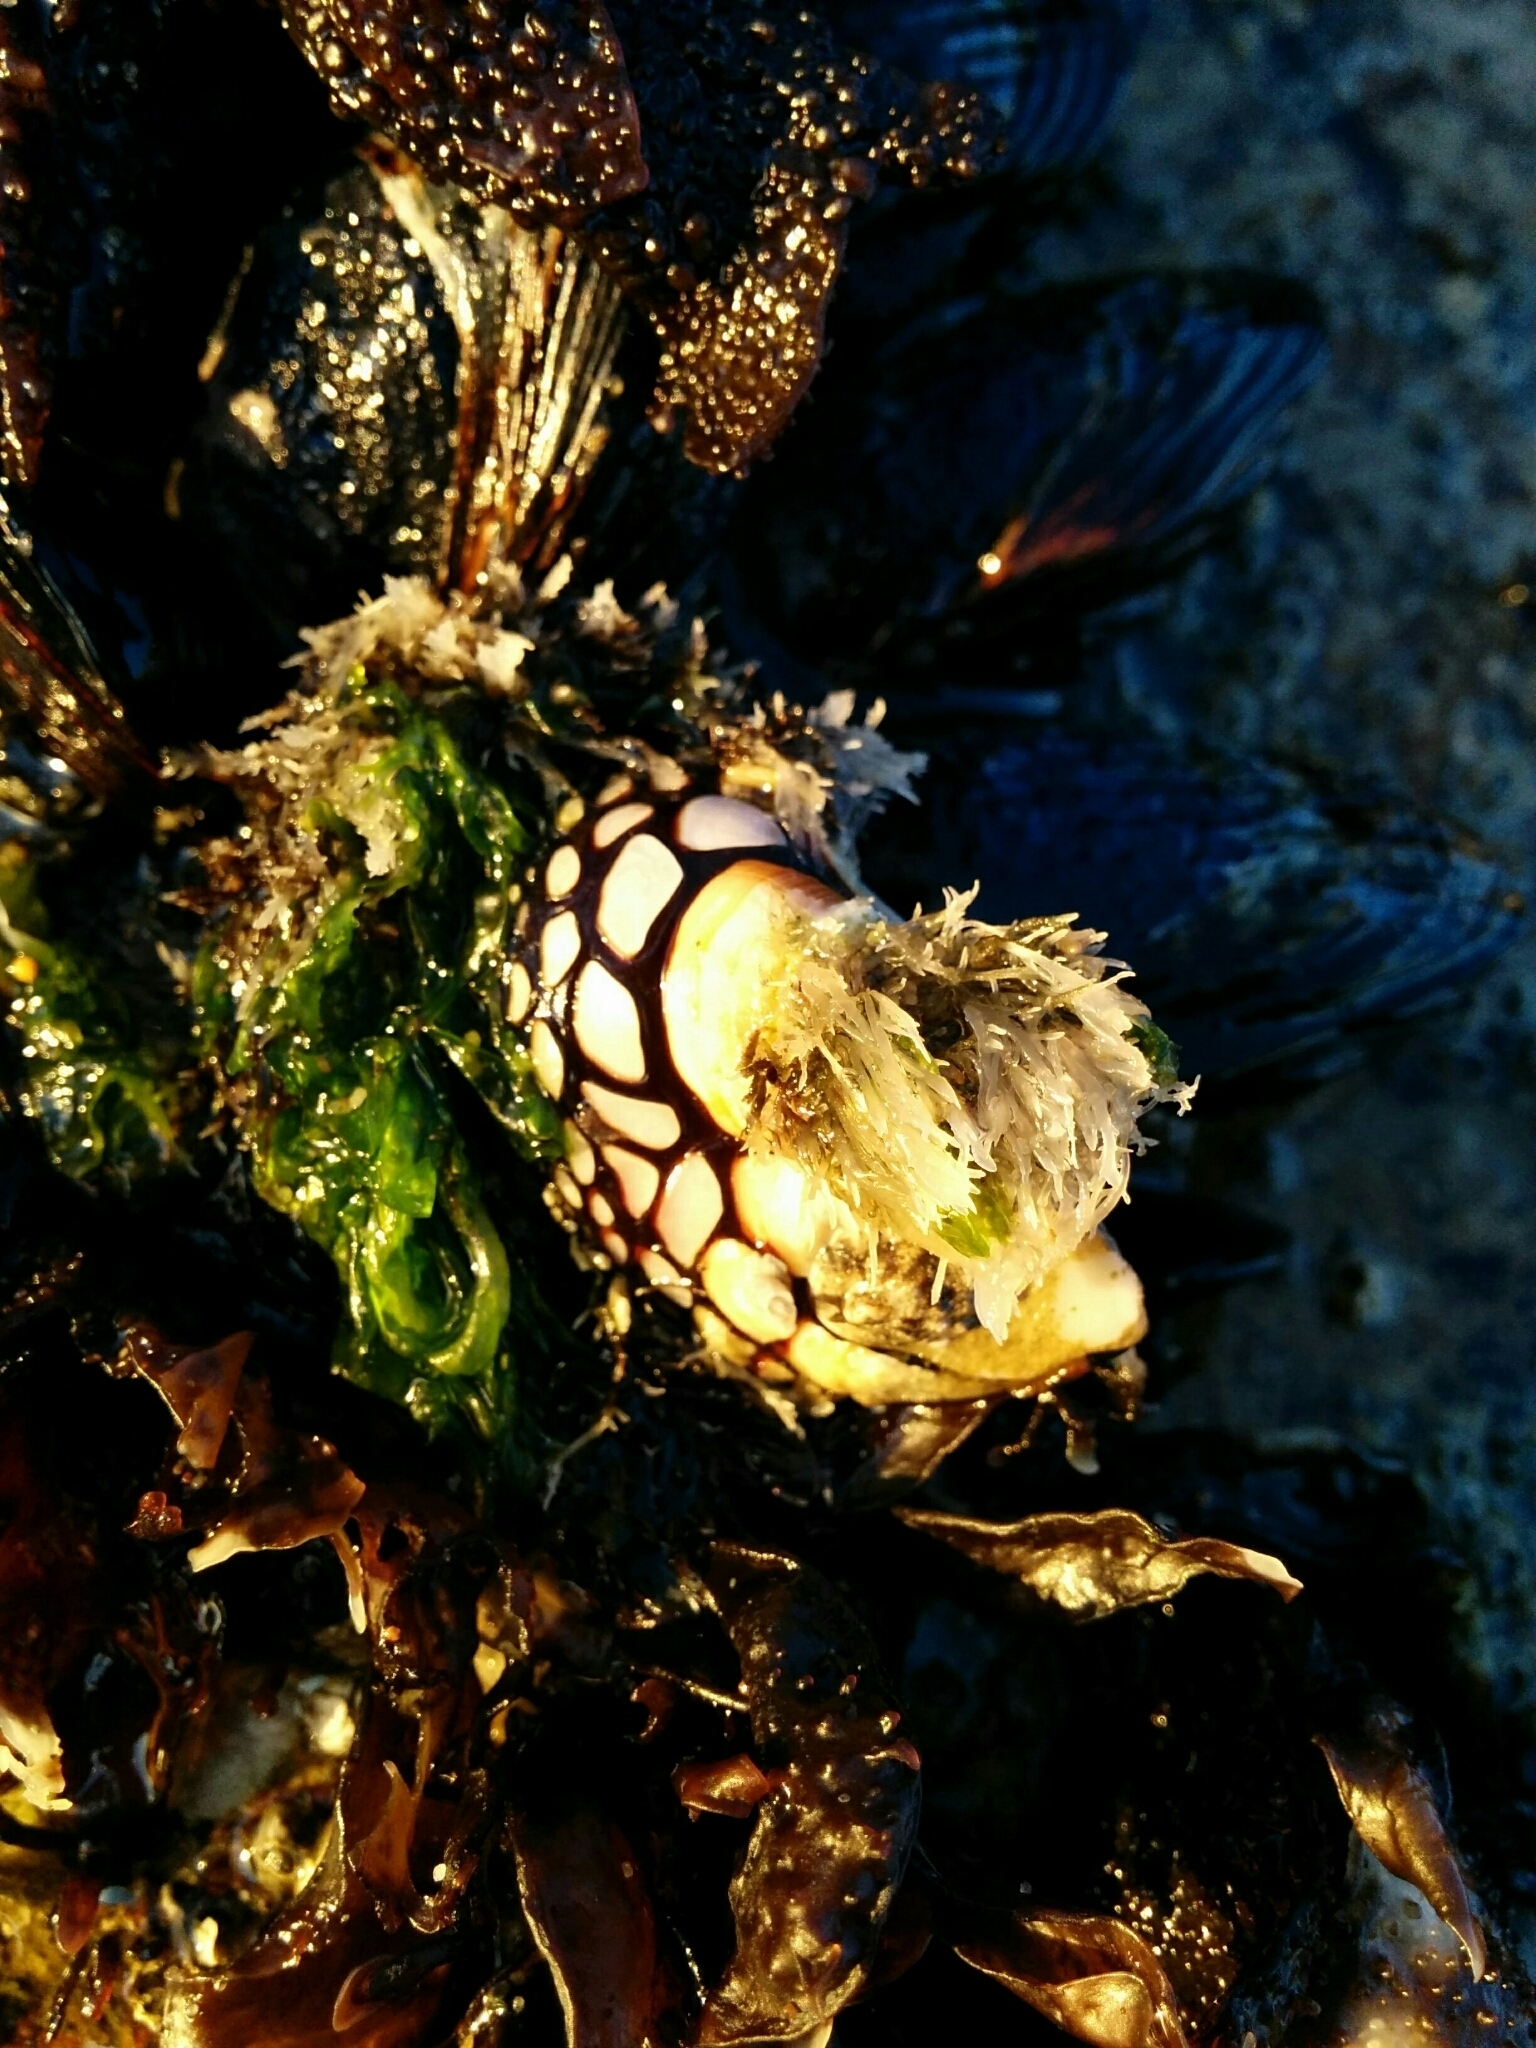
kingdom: Animalia
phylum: Arthropoda
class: Maxillopoda
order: Pedunculata
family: Pollicipedidae
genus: Pollicipes
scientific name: Pollicipes polymerus
